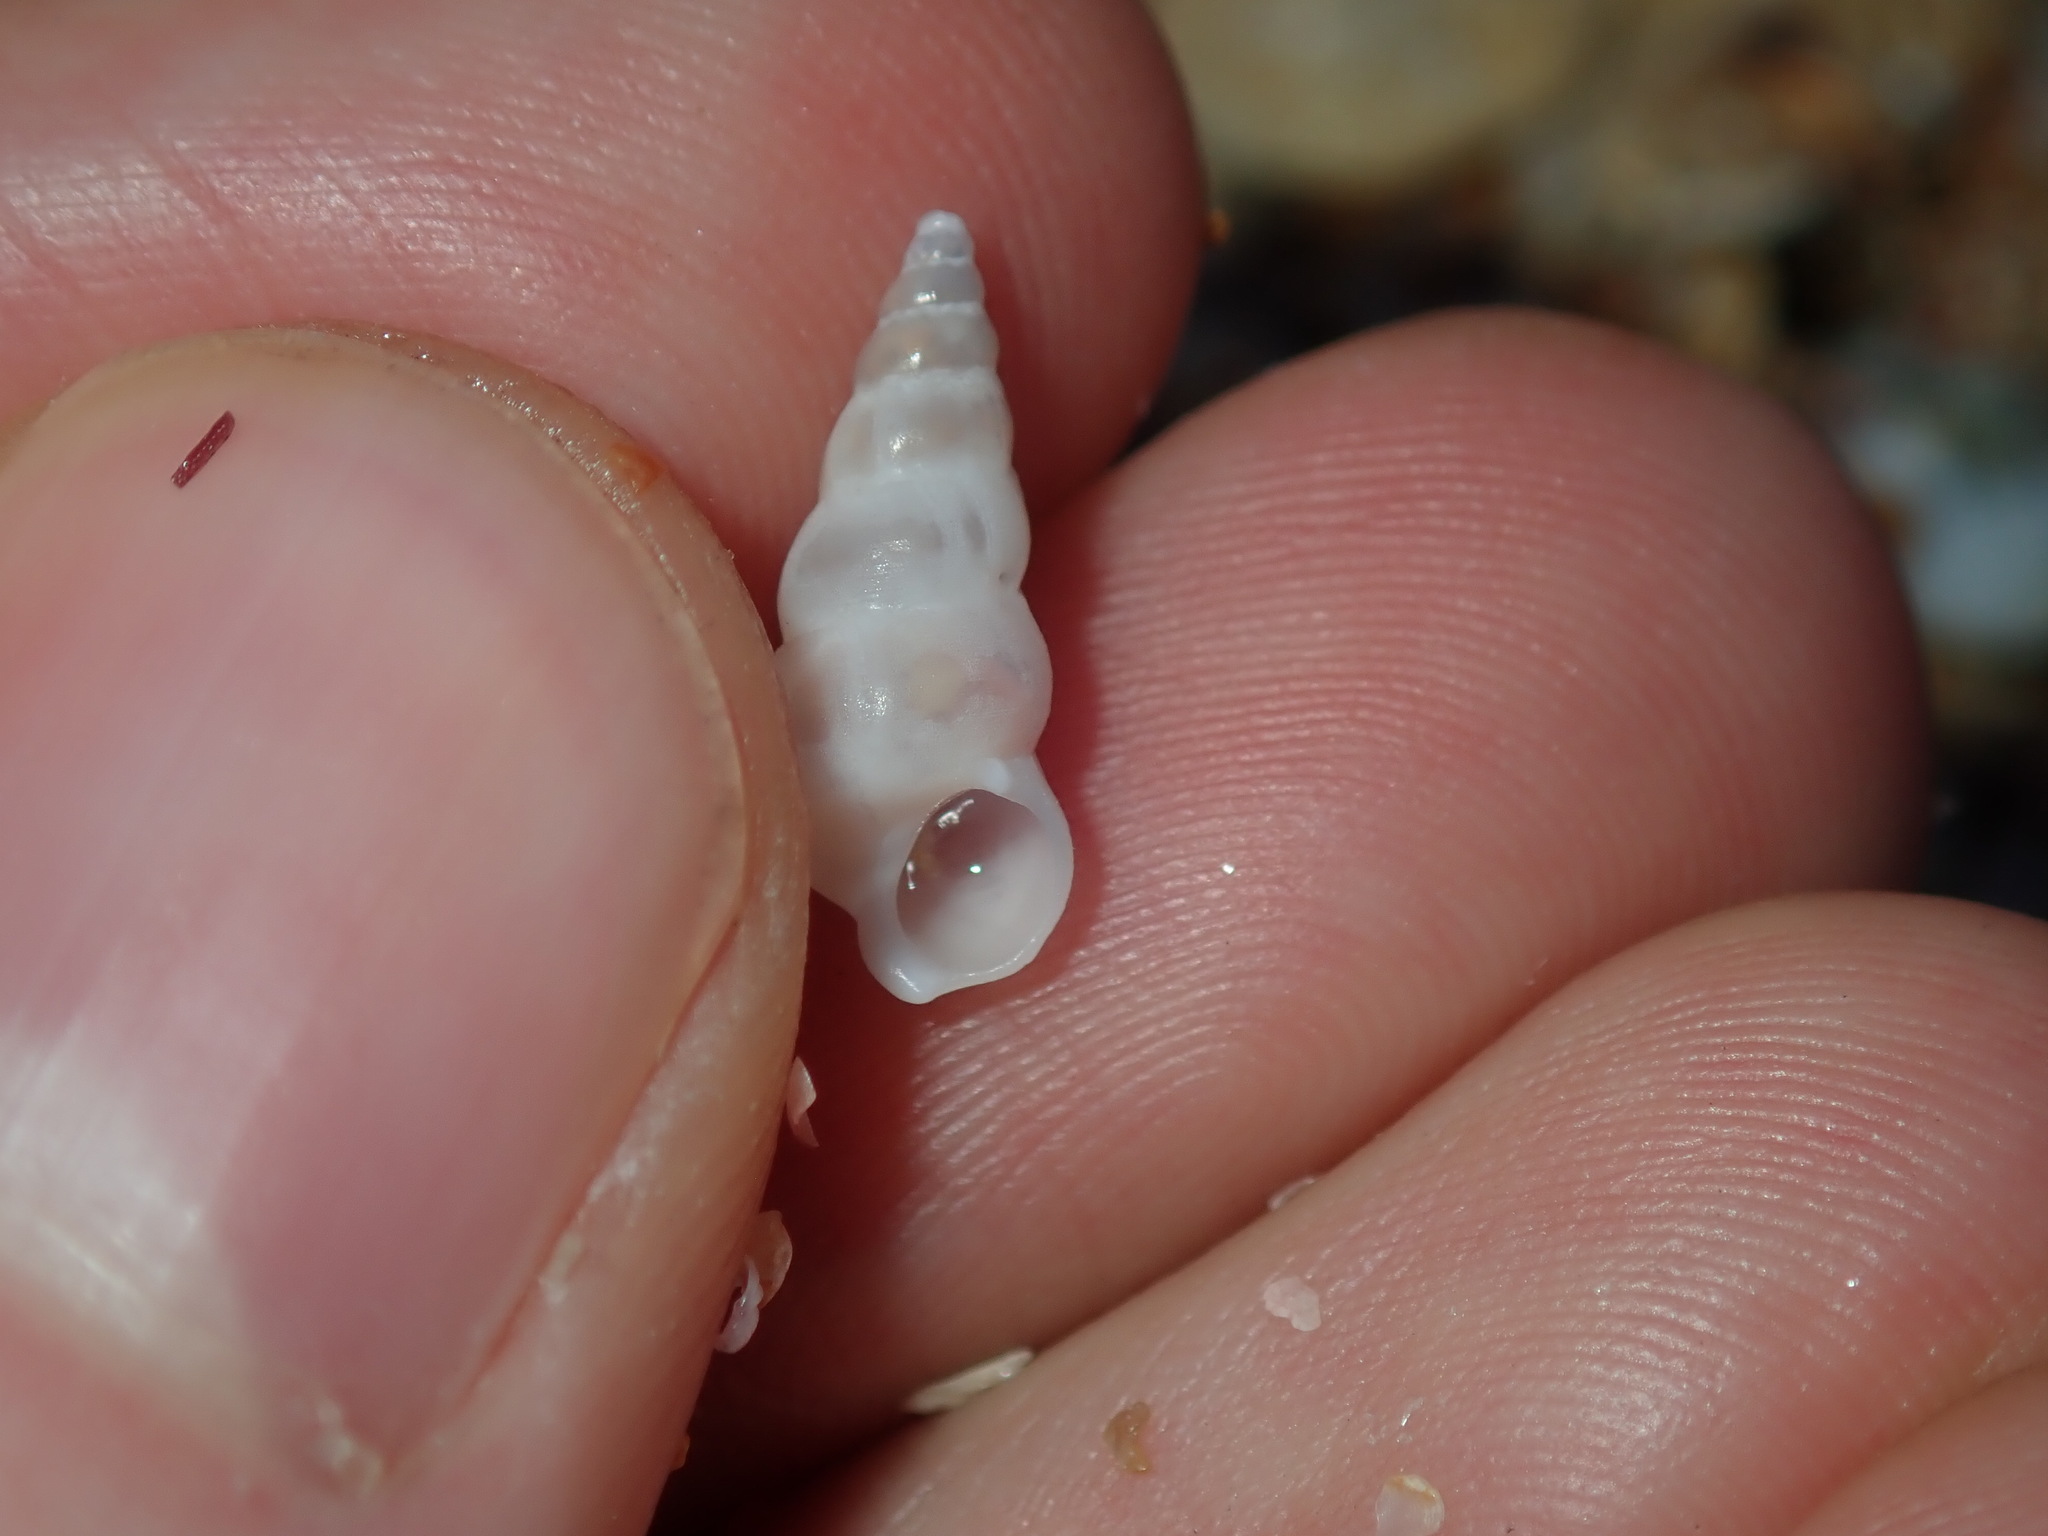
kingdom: Animalia
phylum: Mollusca
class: Gastropoda
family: Epitoniidae
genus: Opalia
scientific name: Opalia ballinensis
